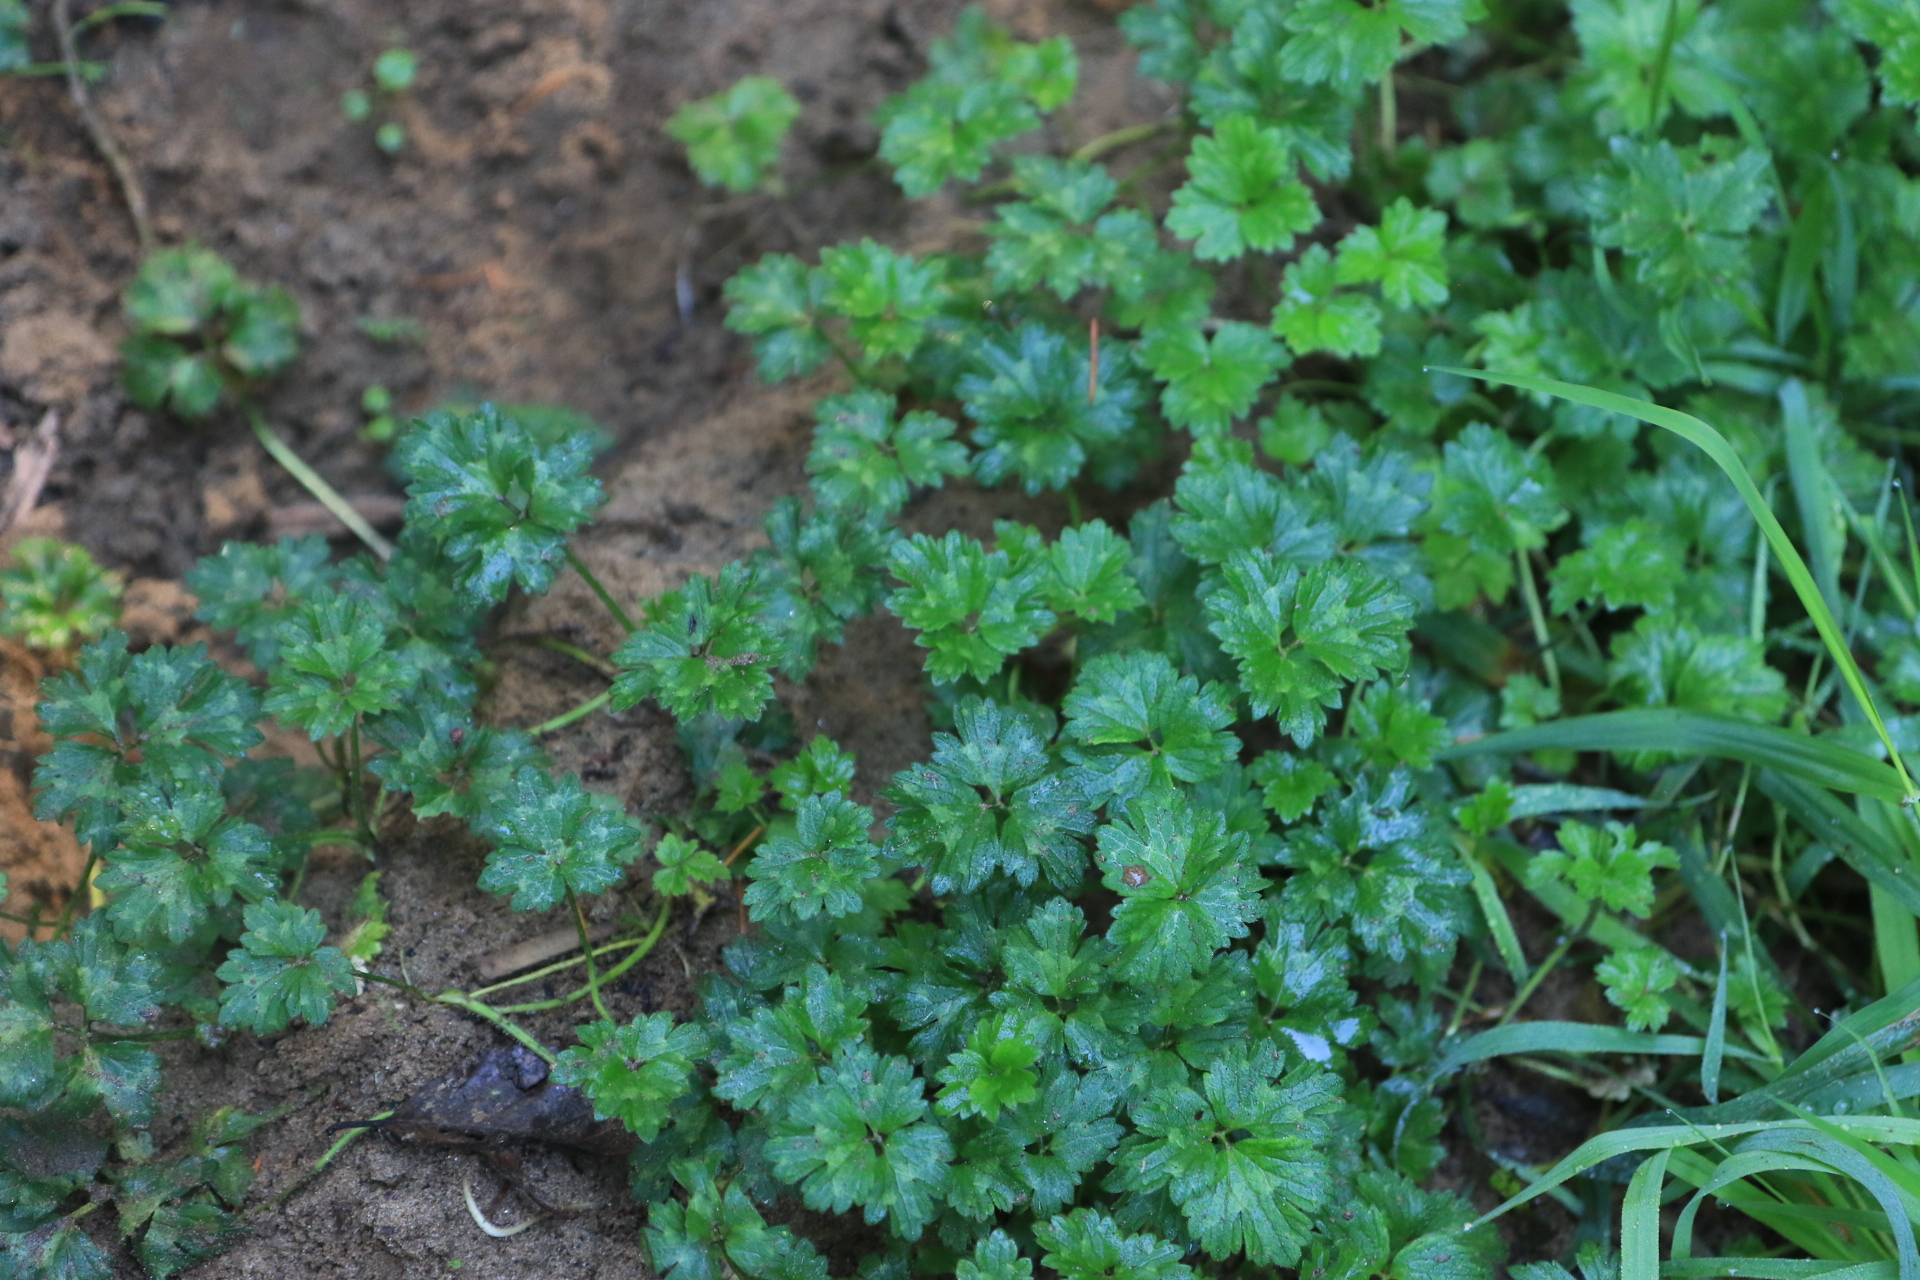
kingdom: Plantae
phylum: Tracheophyta
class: Magnoliopsida
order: Ranunculales
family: Ranunculaceae
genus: Ranunculus
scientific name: Ranunculus repens
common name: Creeping buttercup
